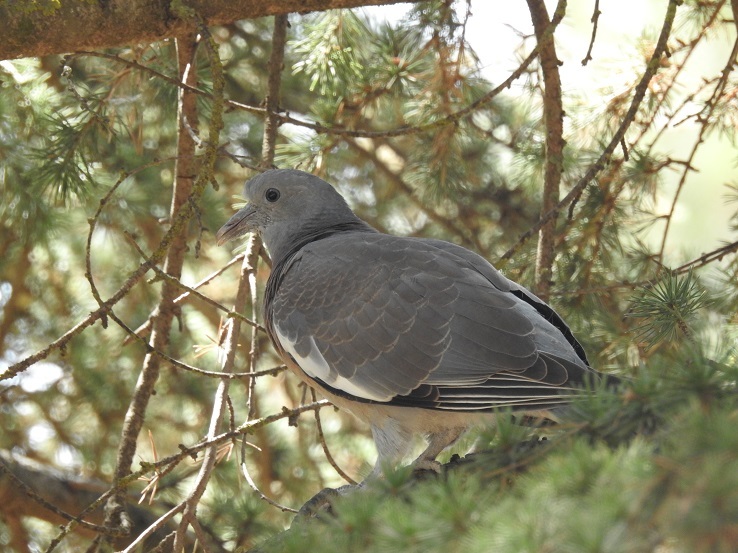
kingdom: Animalia
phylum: Chordata
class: Aves
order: Columbiformes
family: Columbidae
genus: Columba
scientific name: Columba palumbus
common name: Common wood pigeon
